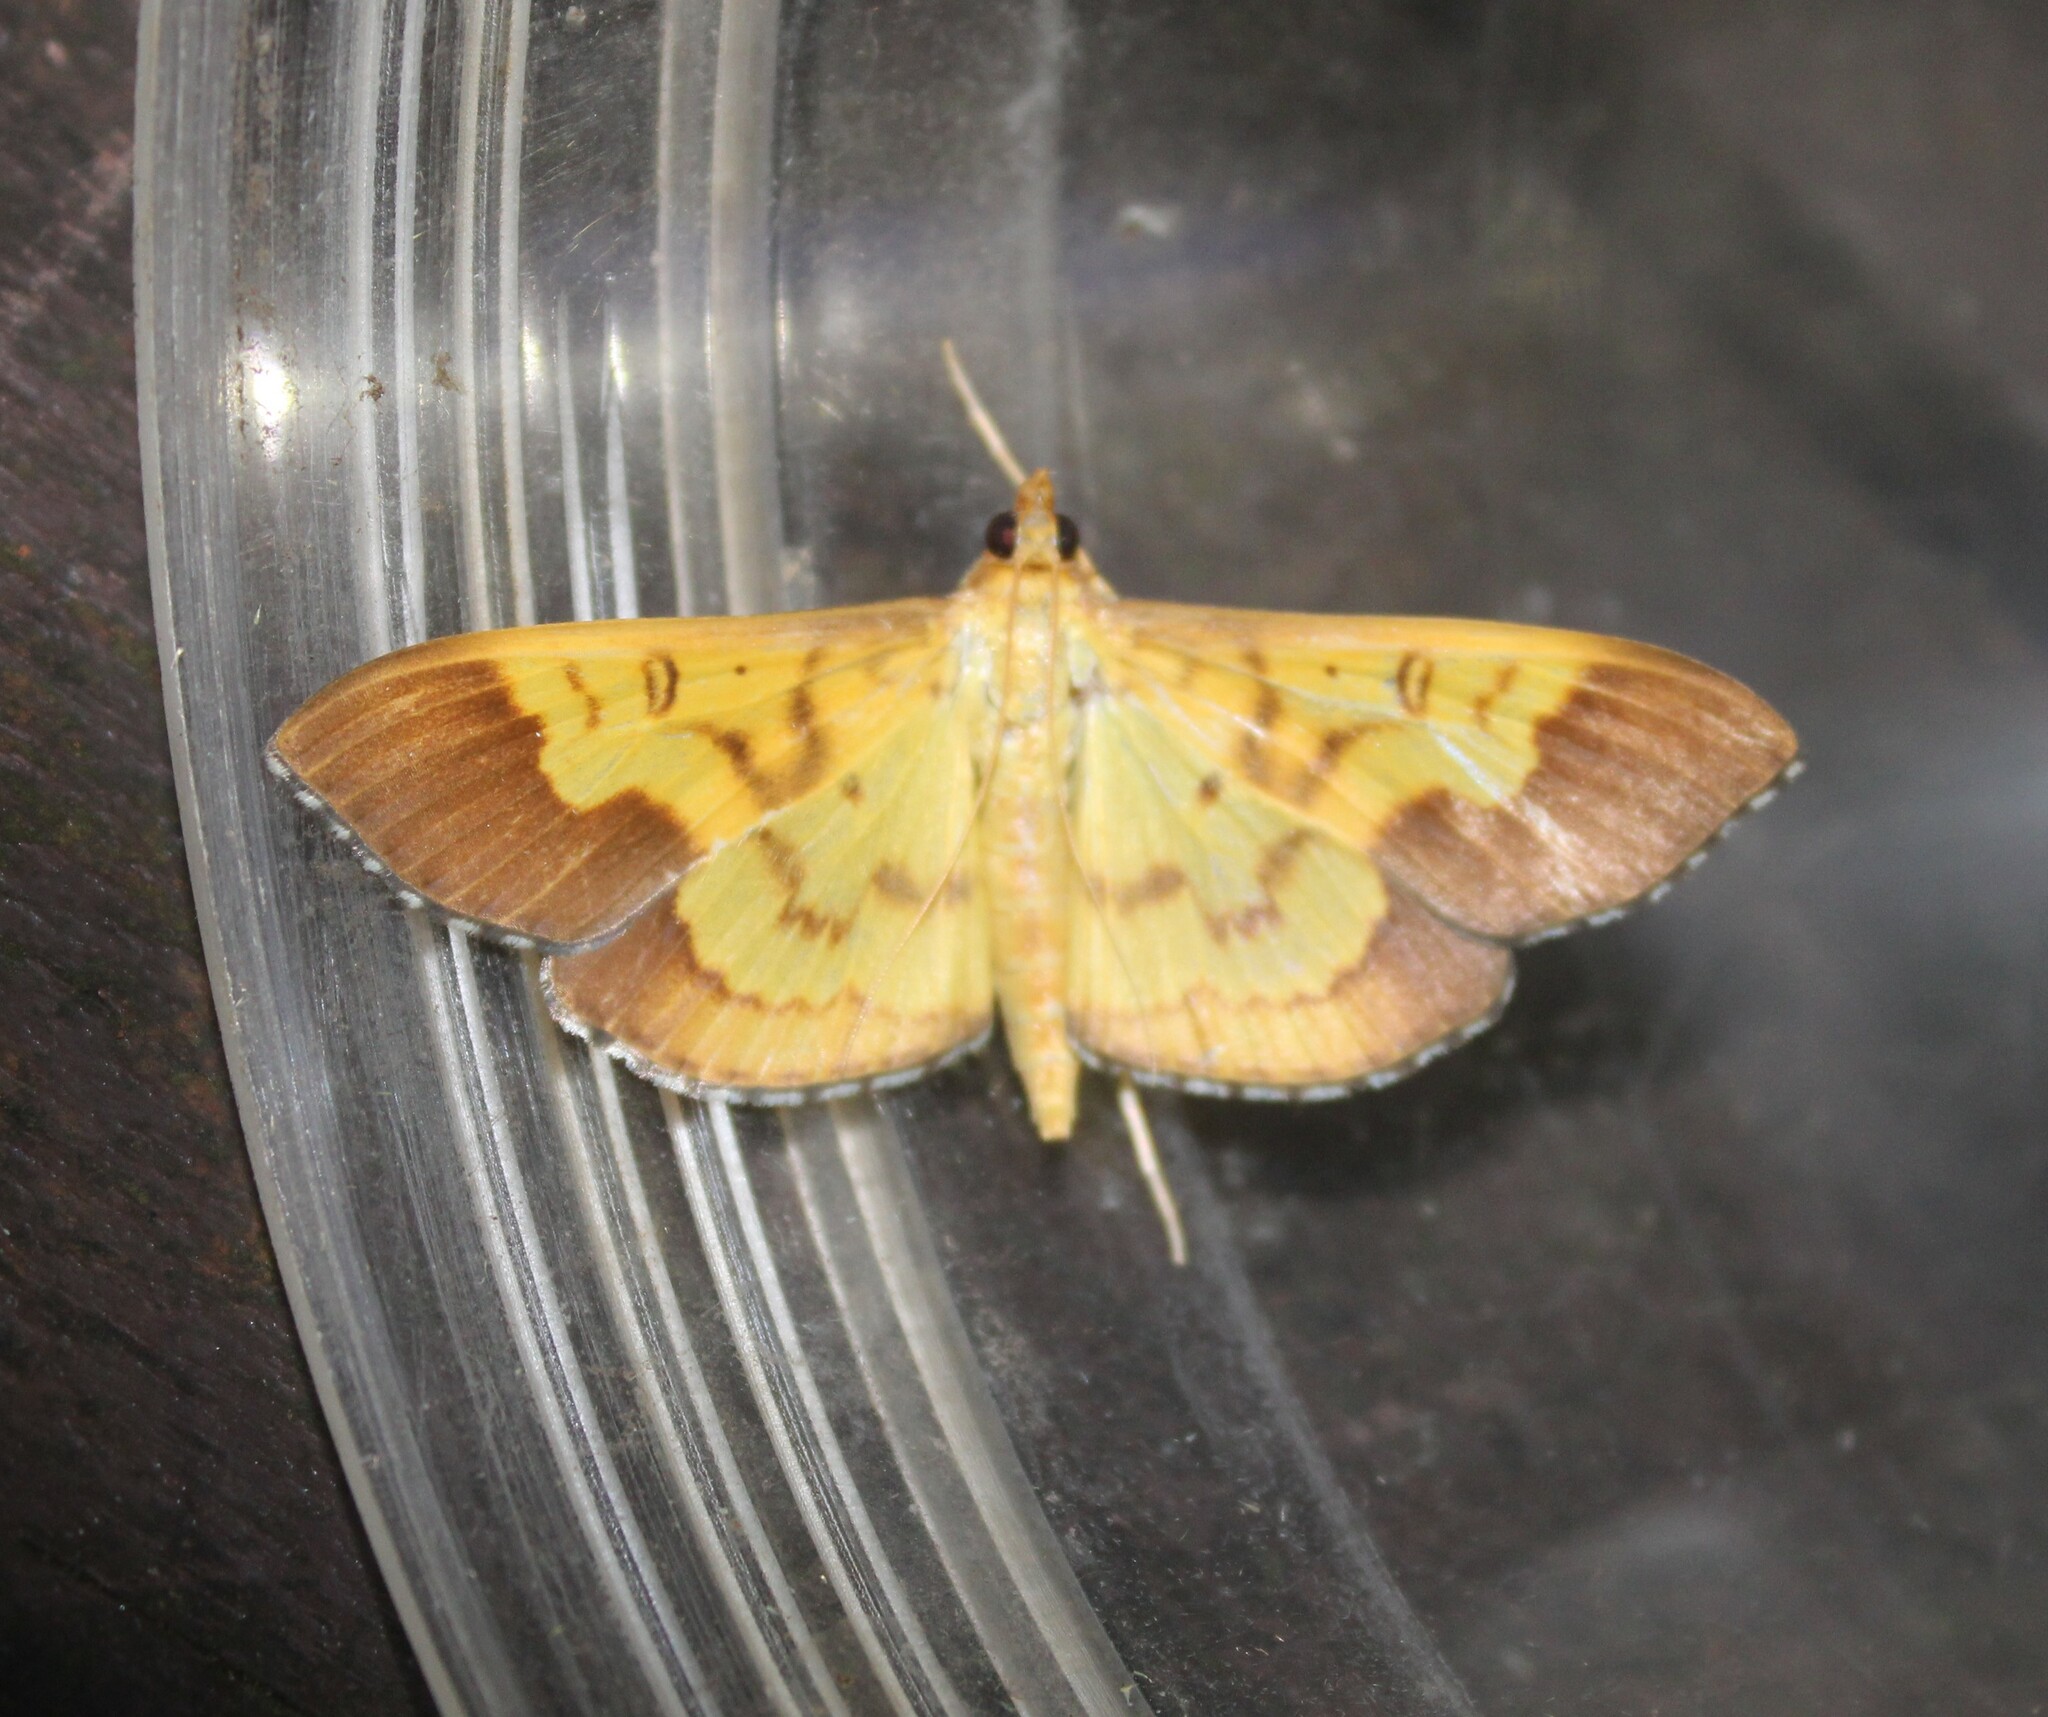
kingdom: Animalia
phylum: Arthropoda
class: Insecta
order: Lepidoptera
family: Crambidae
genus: Meroctena
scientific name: Meroctena staintonii
